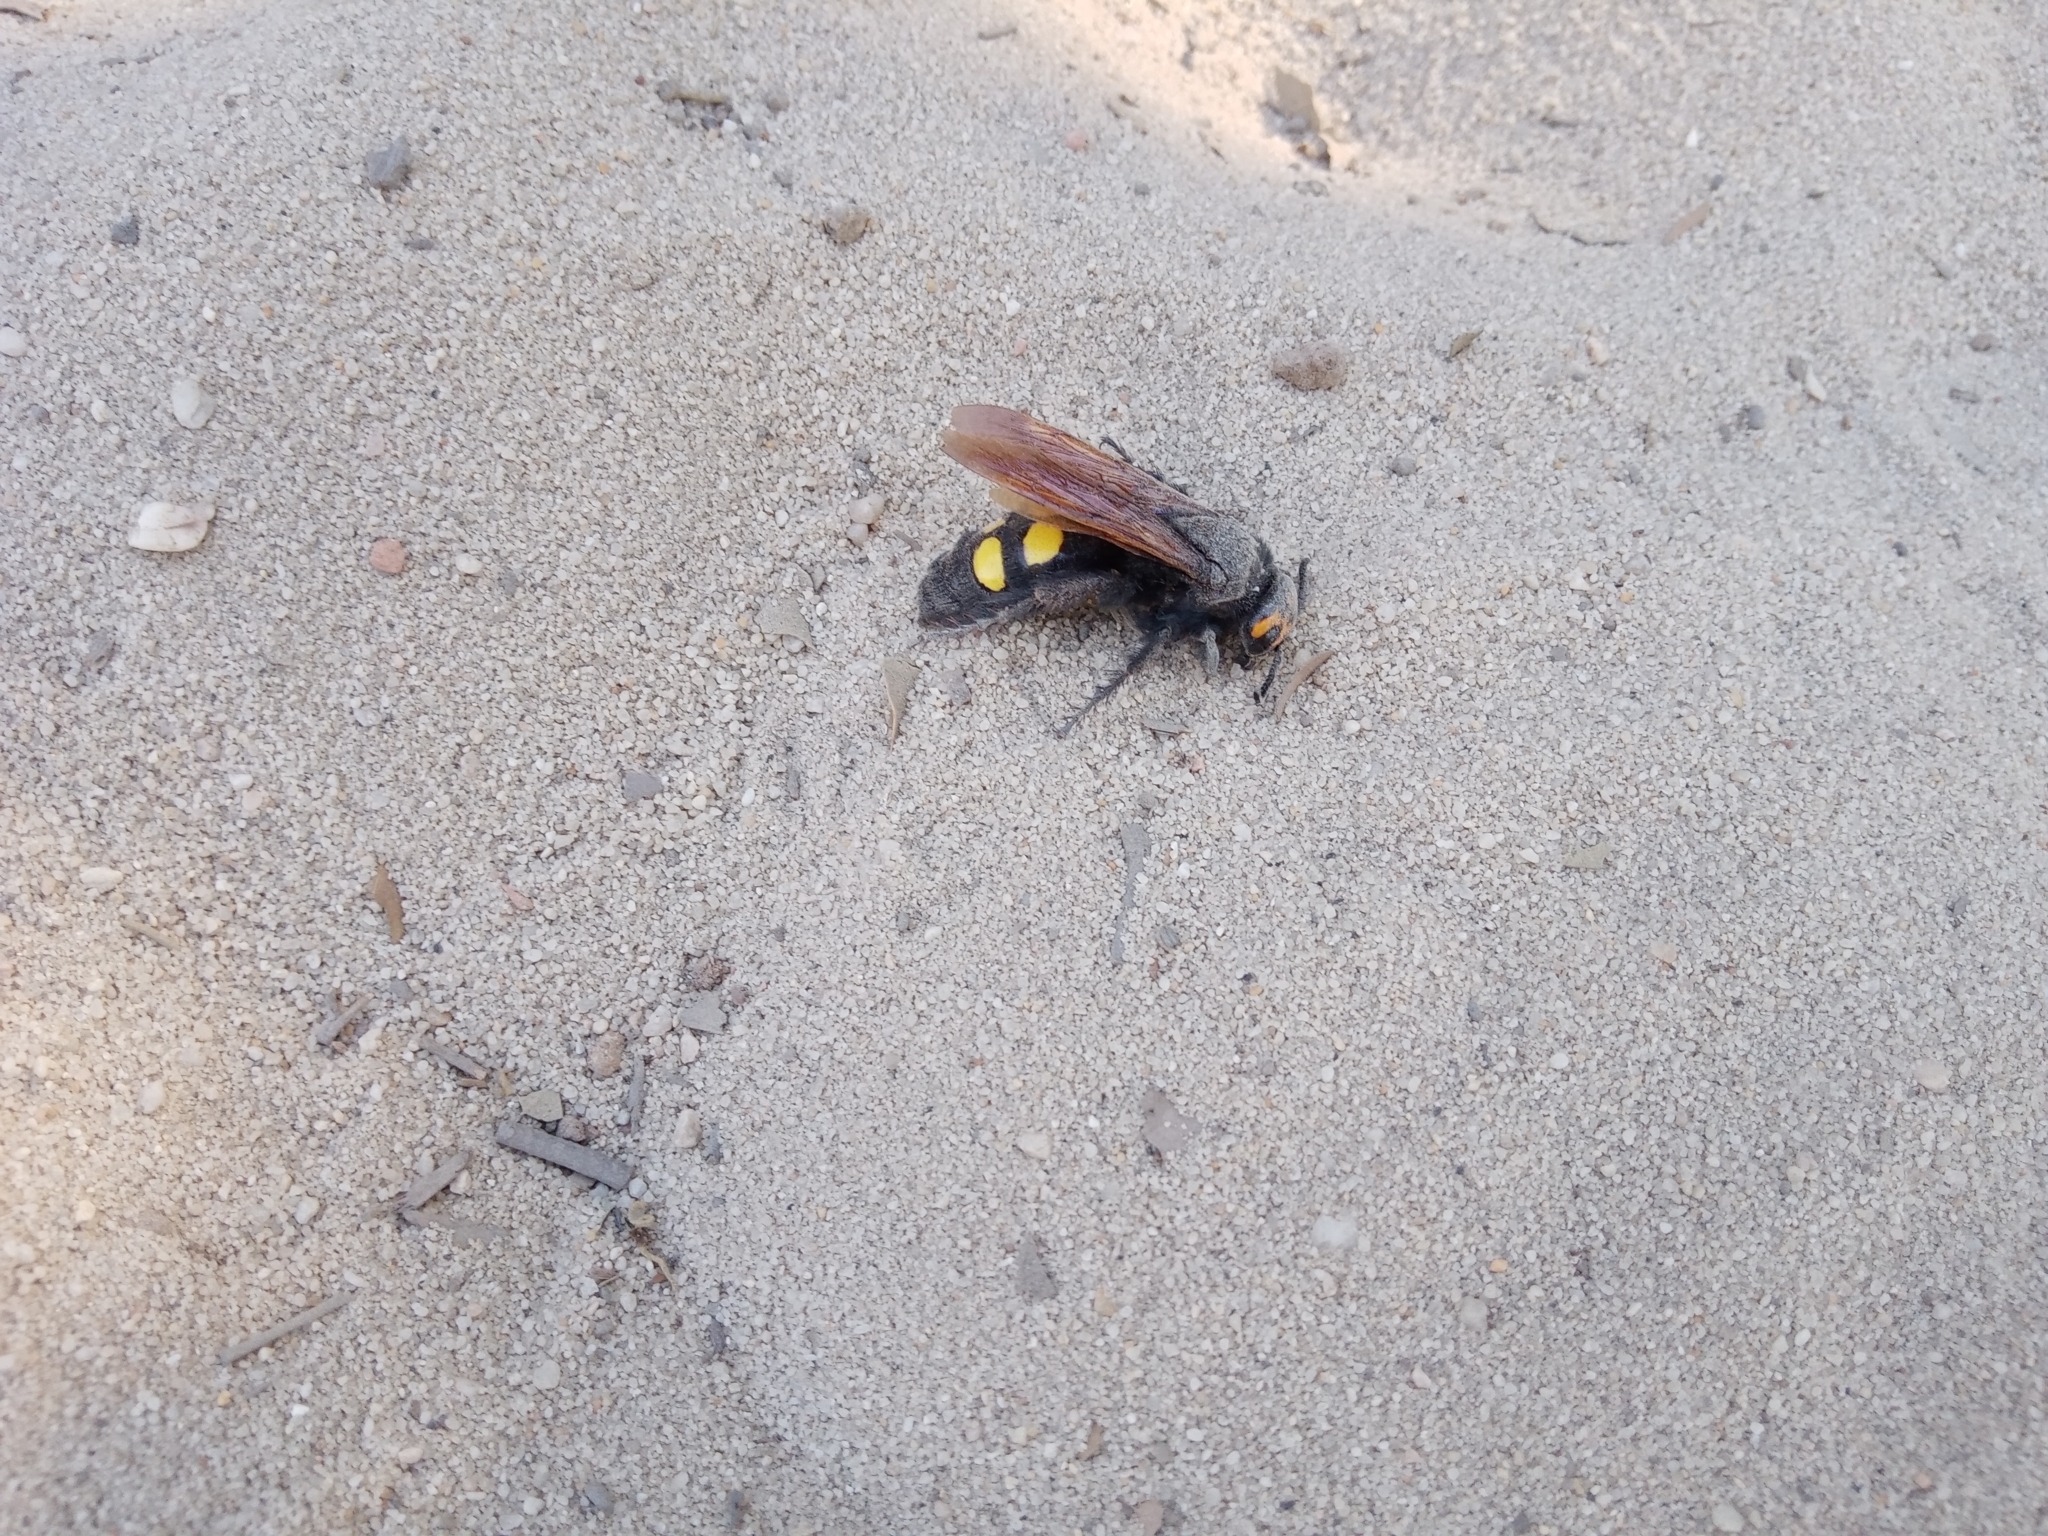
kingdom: Animalia
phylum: Arthropoda
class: Insecta
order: Hymenoptera
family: Scoliidae
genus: Megascolia
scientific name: Megascolia maculata
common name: Mammoth wasp
